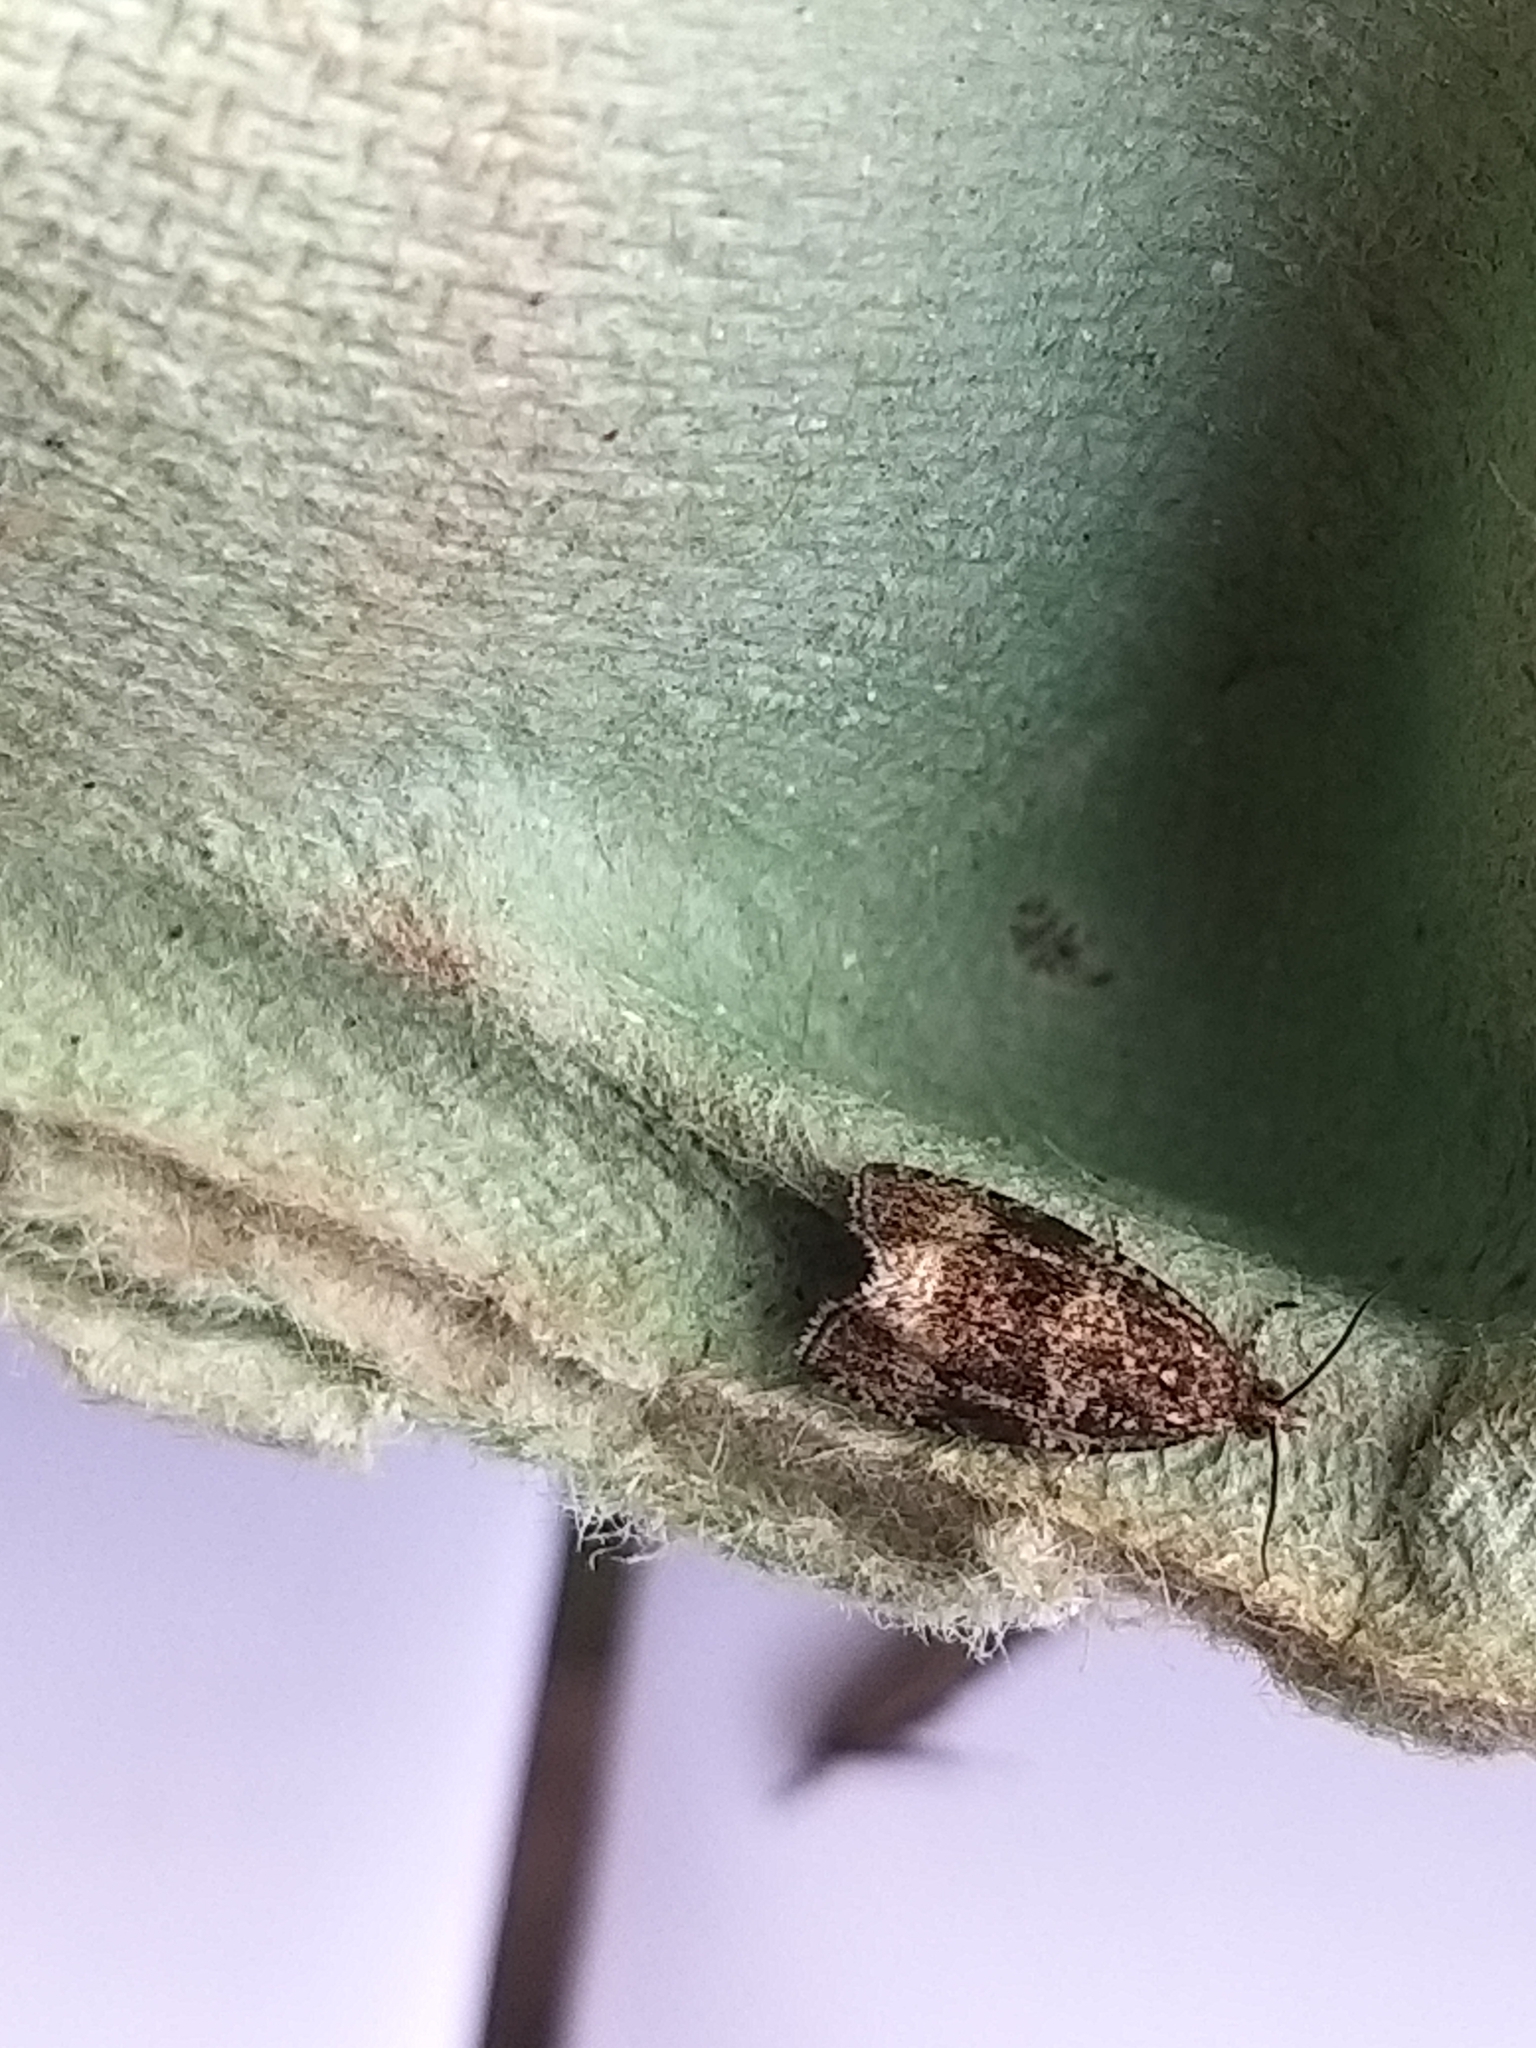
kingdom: Animalia
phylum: Arthropoda
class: Insecta
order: Lepidoptera
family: Tortricidae
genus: Syricoris
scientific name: Syricoris lacunana
